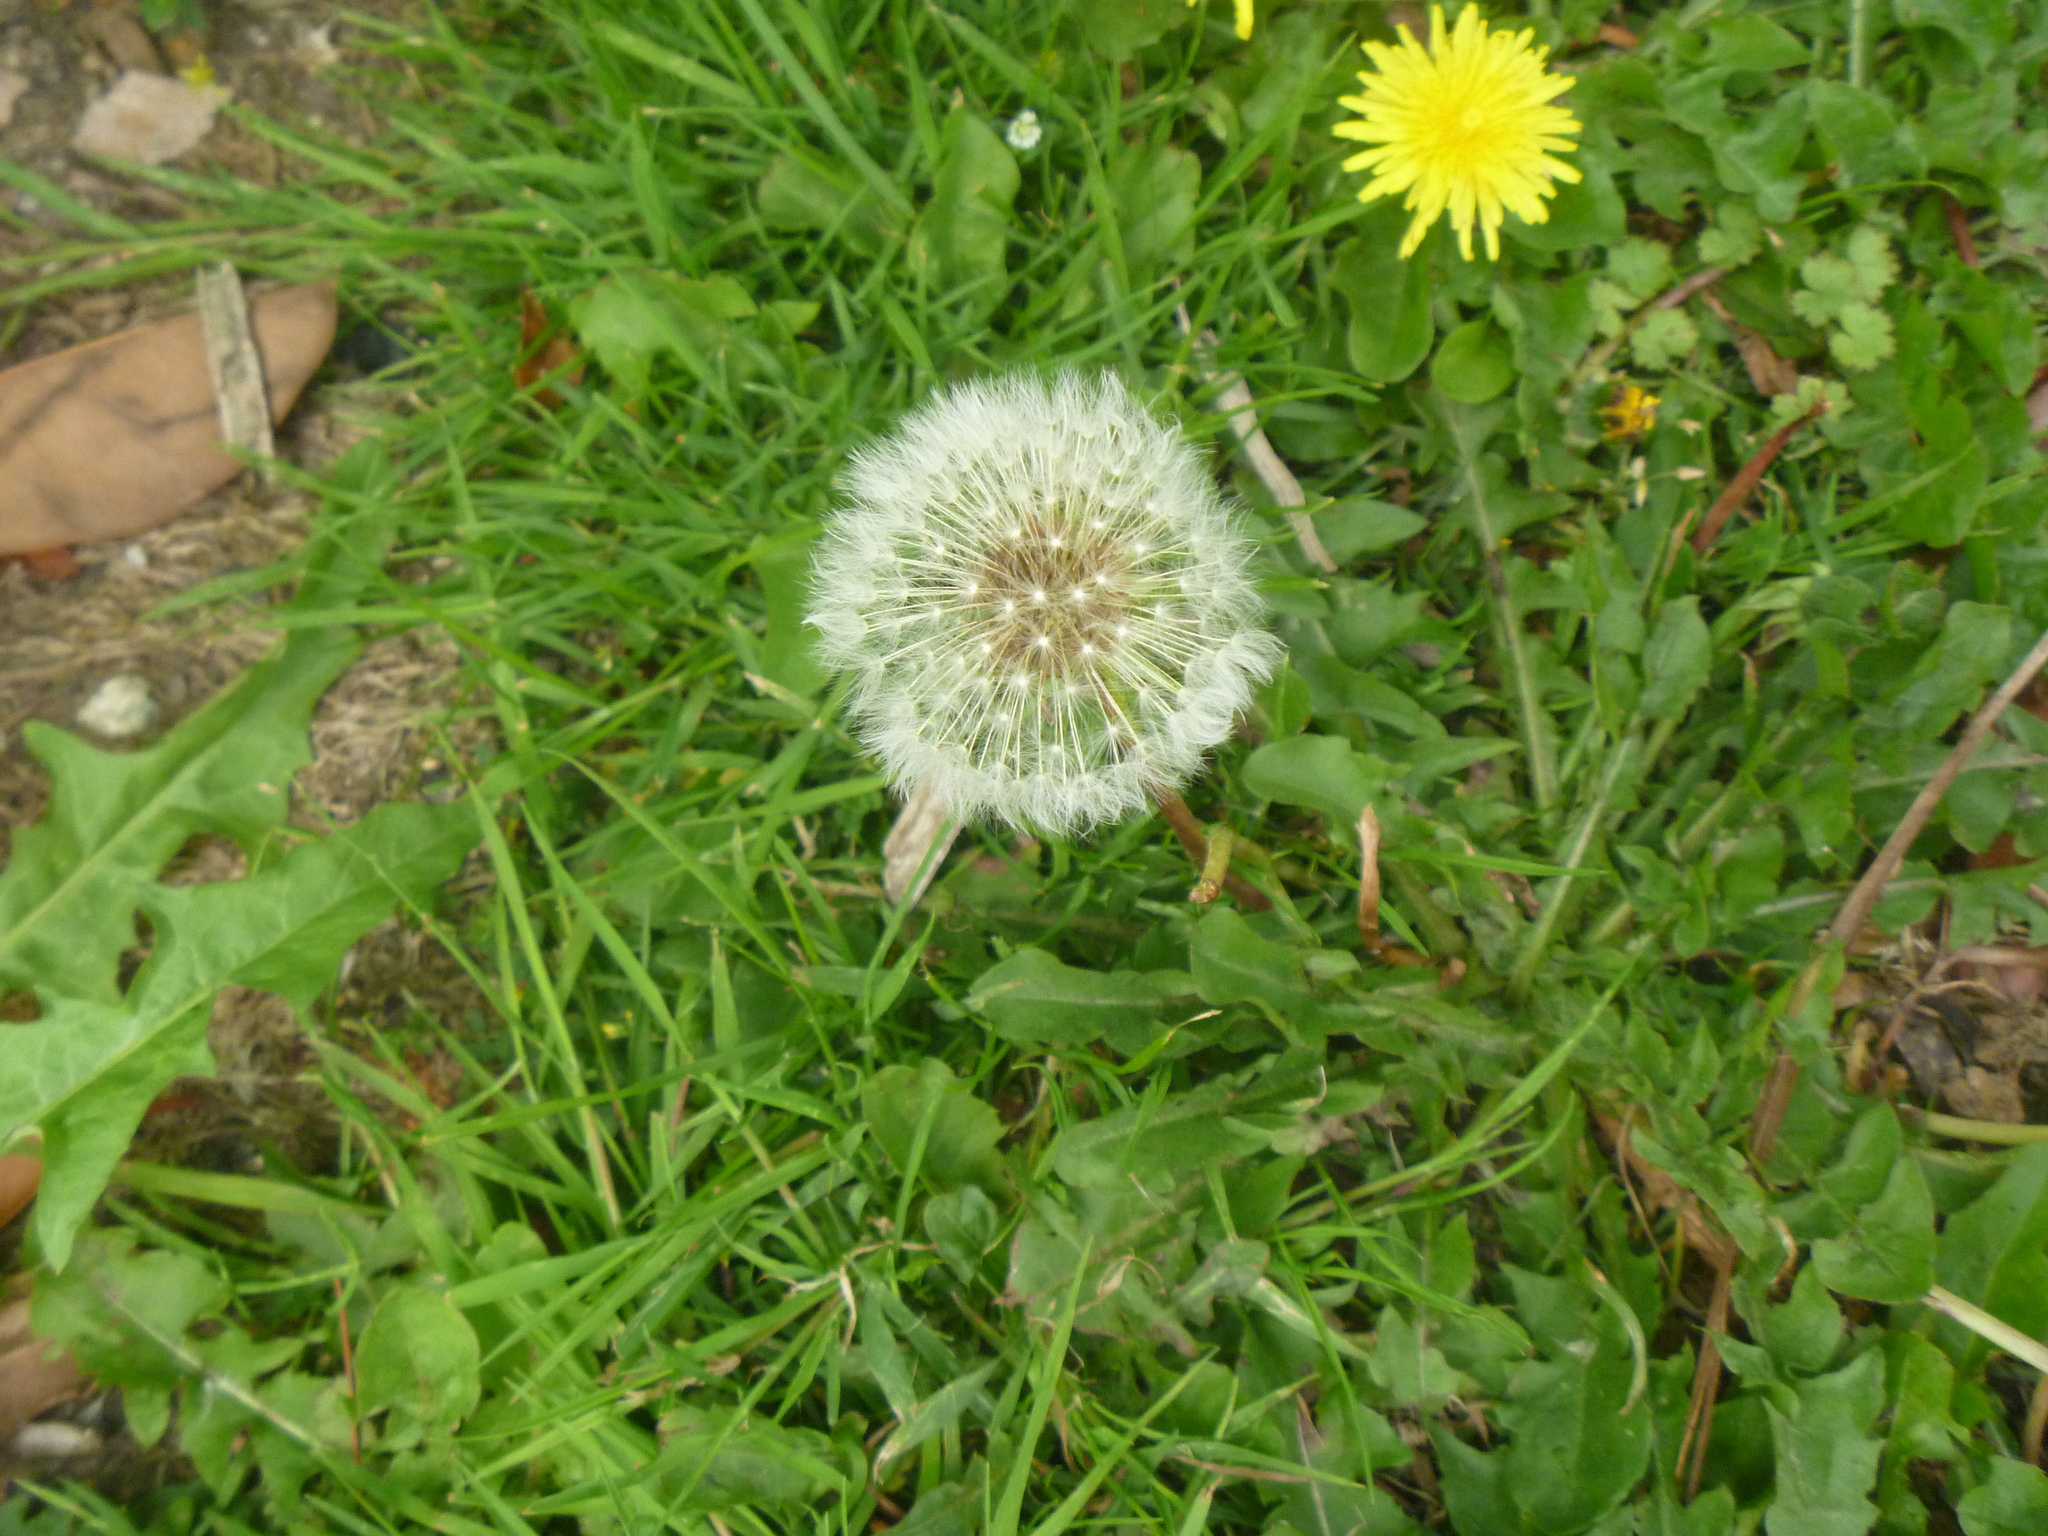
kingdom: Plantae
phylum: Tracheophyta
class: Magnoliopsida
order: Asterales
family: Asteraceae
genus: Taraxacum
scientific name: Taraxacum officinale
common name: Common dandelion
